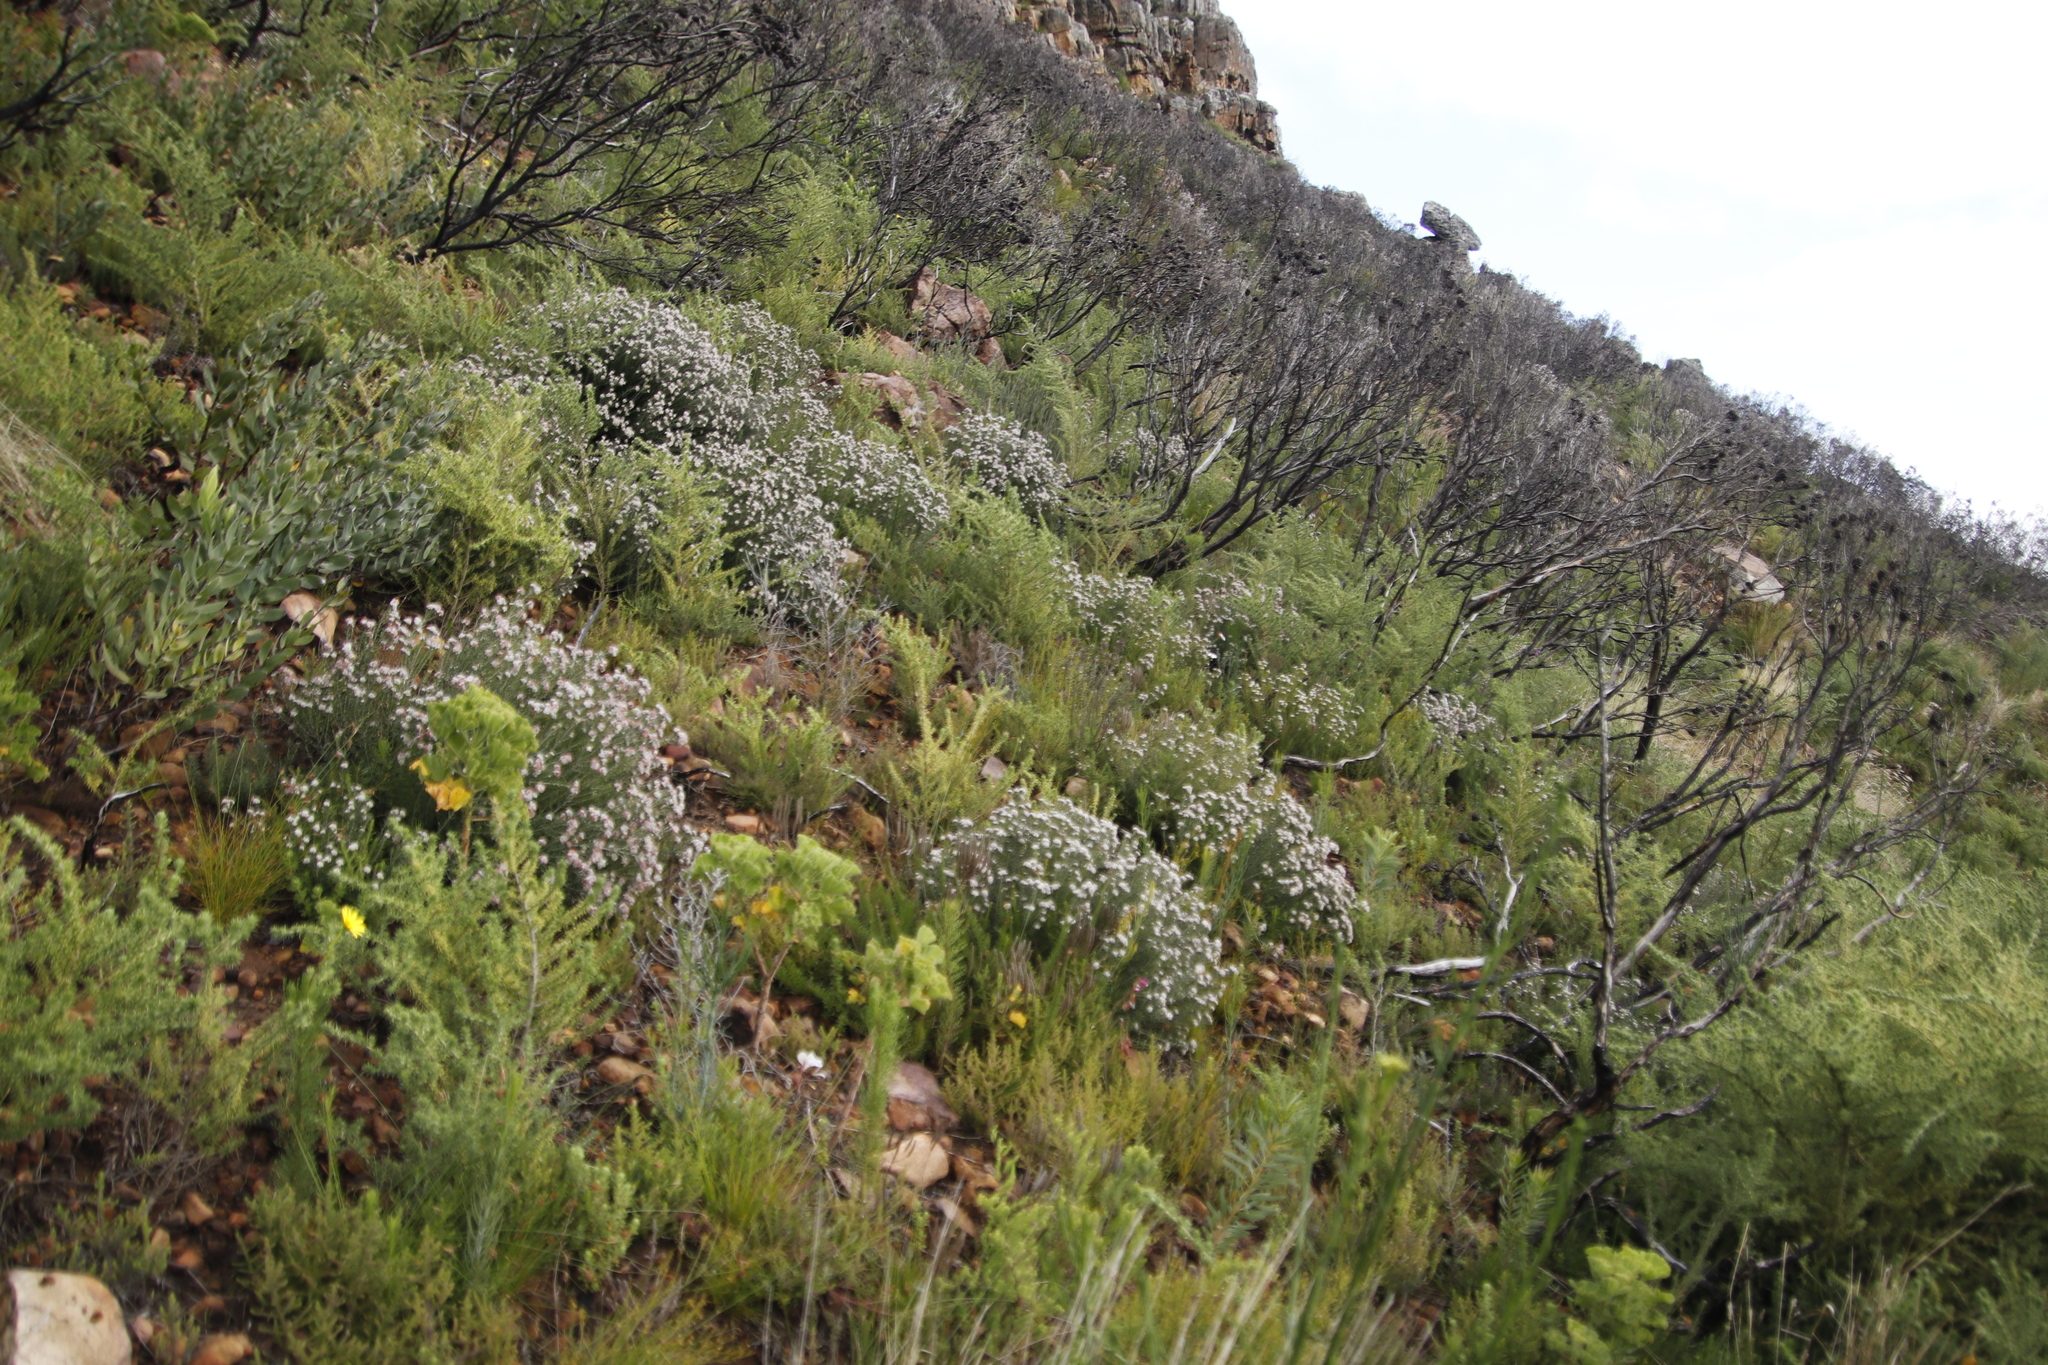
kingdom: Plantae
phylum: Tracheophyta
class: Magnoliopsida
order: Rosales
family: Rhamnaceae
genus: Trichocephalus
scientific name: Trichocephalus stipularis
